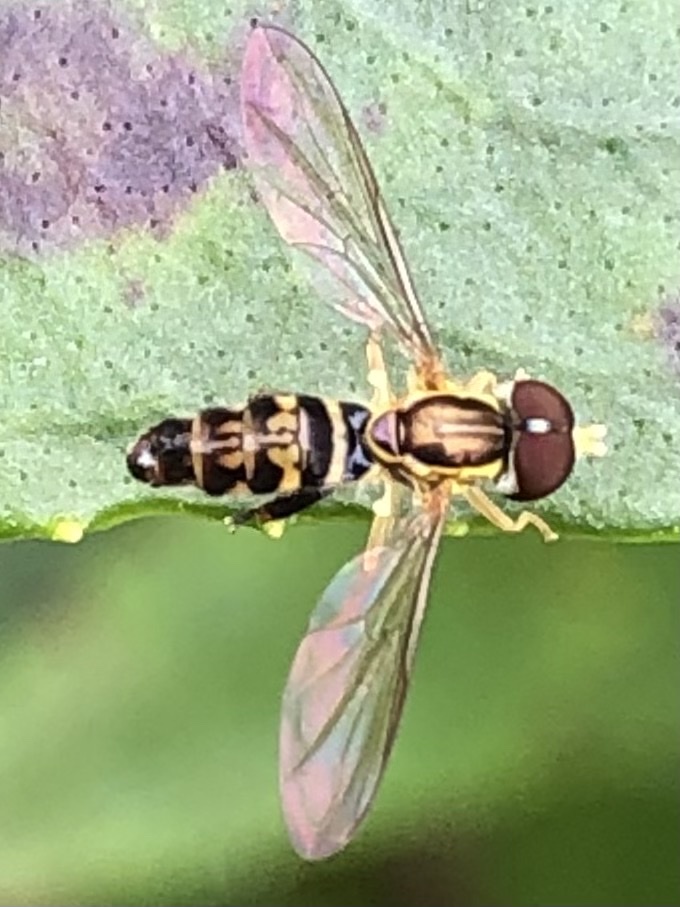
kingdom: Animalia
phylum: Arthropoda
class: Insecta
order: Diptera
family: Syrphidae
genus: Toxomerus
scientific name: Toxomerus geminatus
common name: Eastern calligrapher
